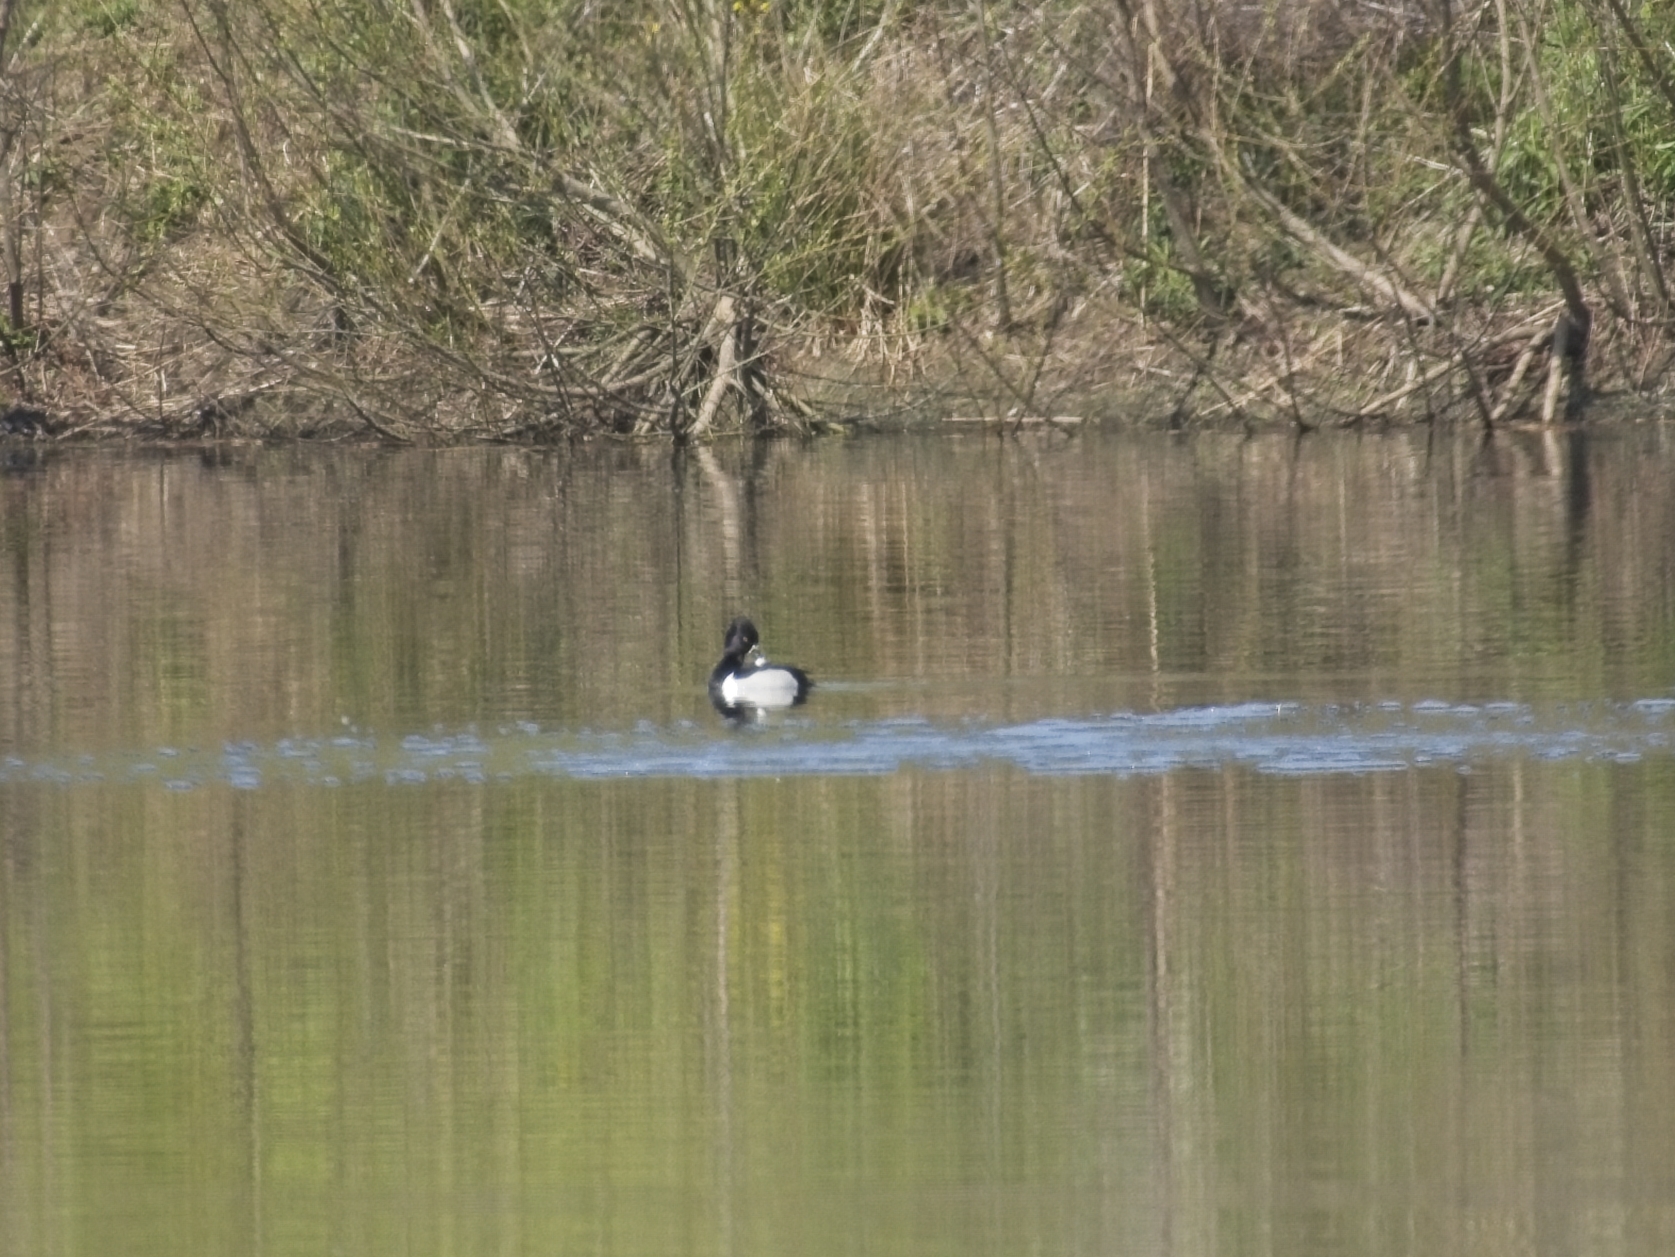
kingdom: Animalia
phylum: Chordata
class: Aves
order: Anseriformes
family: Anatidae
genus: Aythya
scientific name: Aythya collaris
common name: Ring-necked duck
